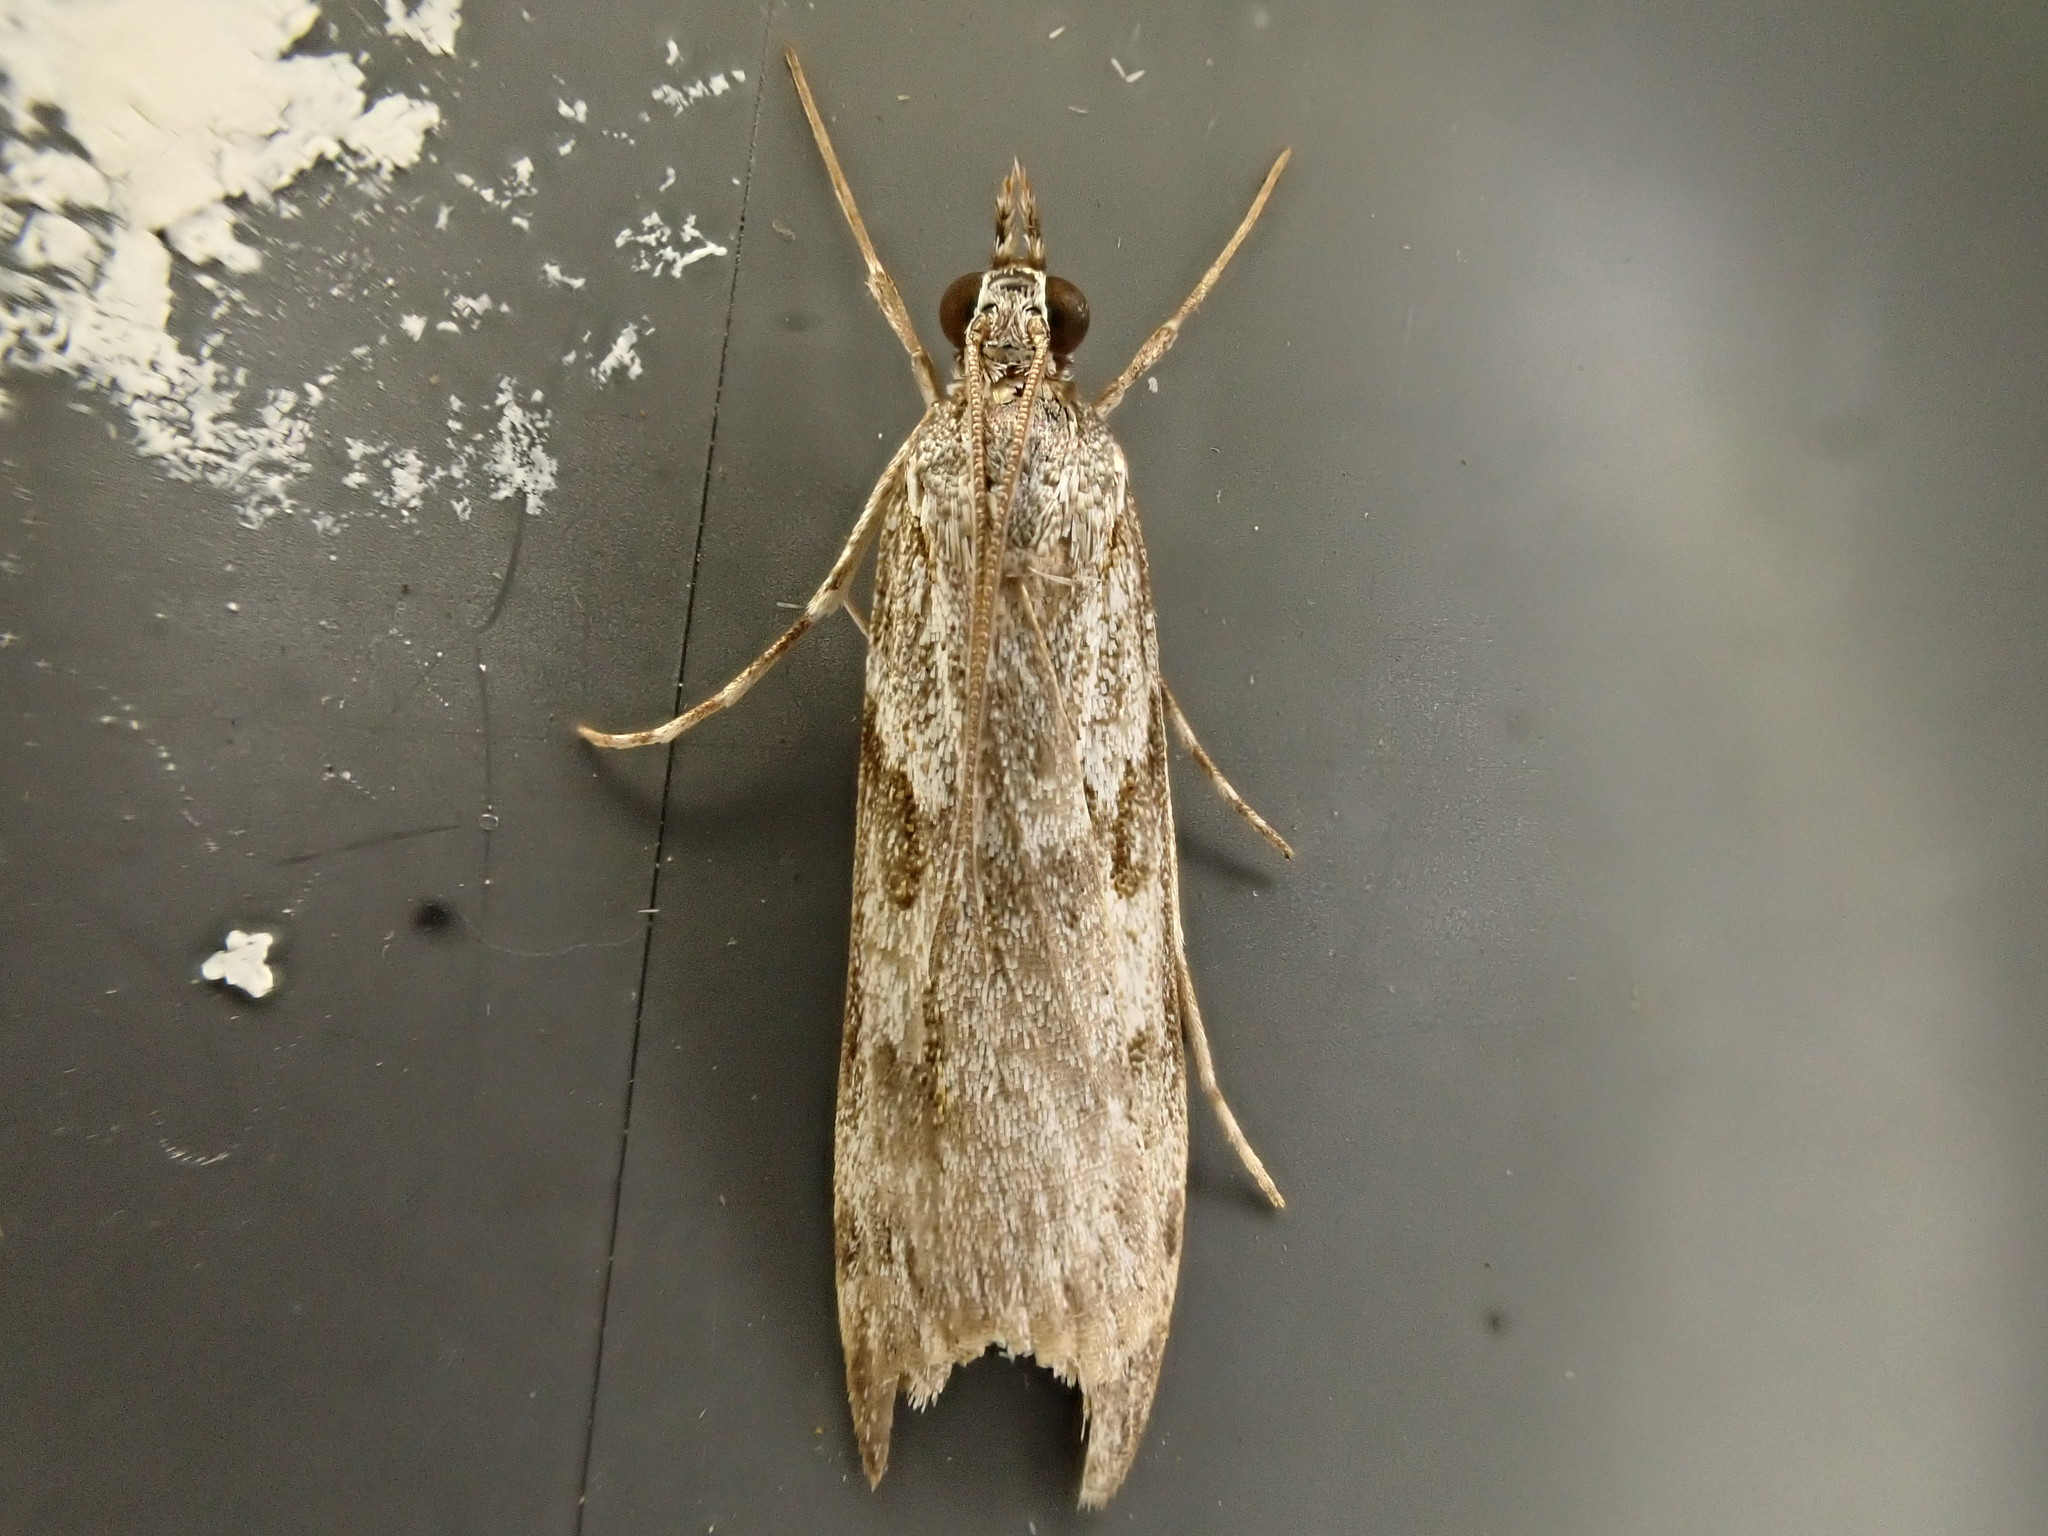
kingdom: Animalia
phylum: Arthropoda
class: Insecta
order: Lepidoptera
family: Crambidae
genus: Scoparia
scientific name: Scoparia halopis
